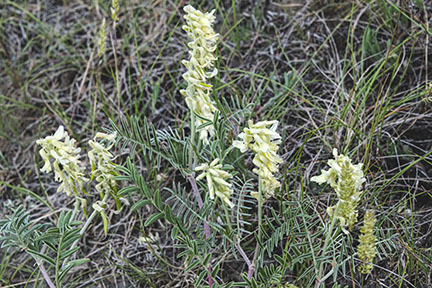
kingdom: Plantae
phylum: Tracheophyta
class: Magnoliopsida
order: Fabales
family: Fabaceae
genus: Astragalus
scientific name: Astragalus drummondii
